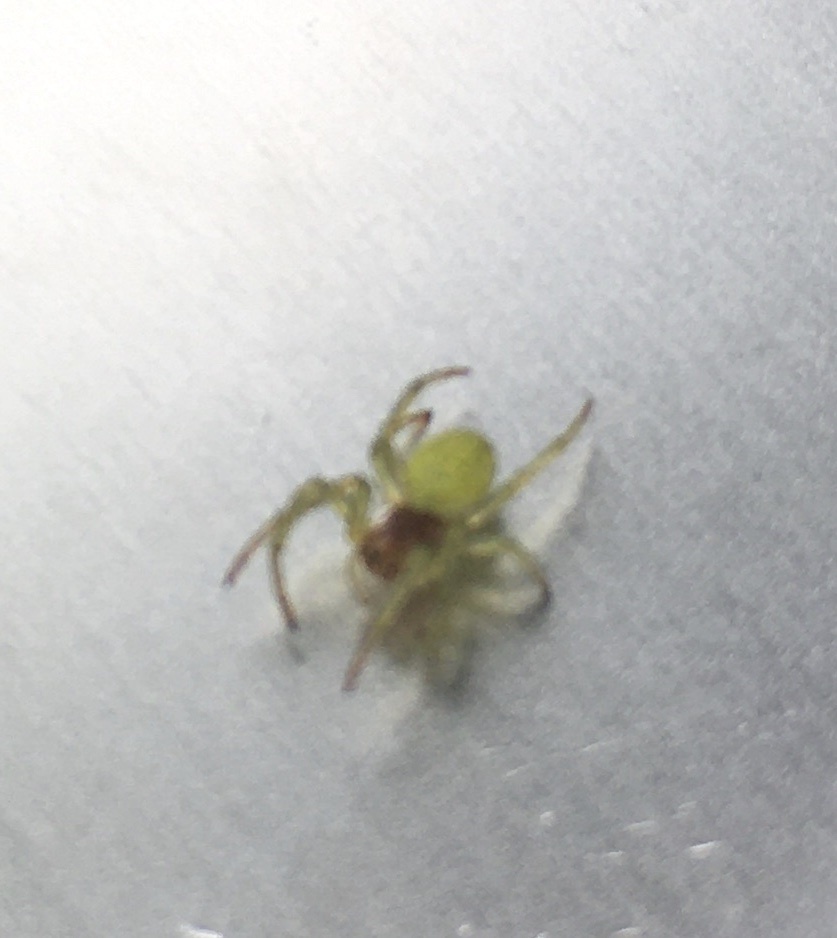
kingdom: Animalia
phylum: Arthropoda
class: Arachnida
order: Araneae
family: Araneidae
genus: Araniella
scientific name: Araniella cucurbitina
